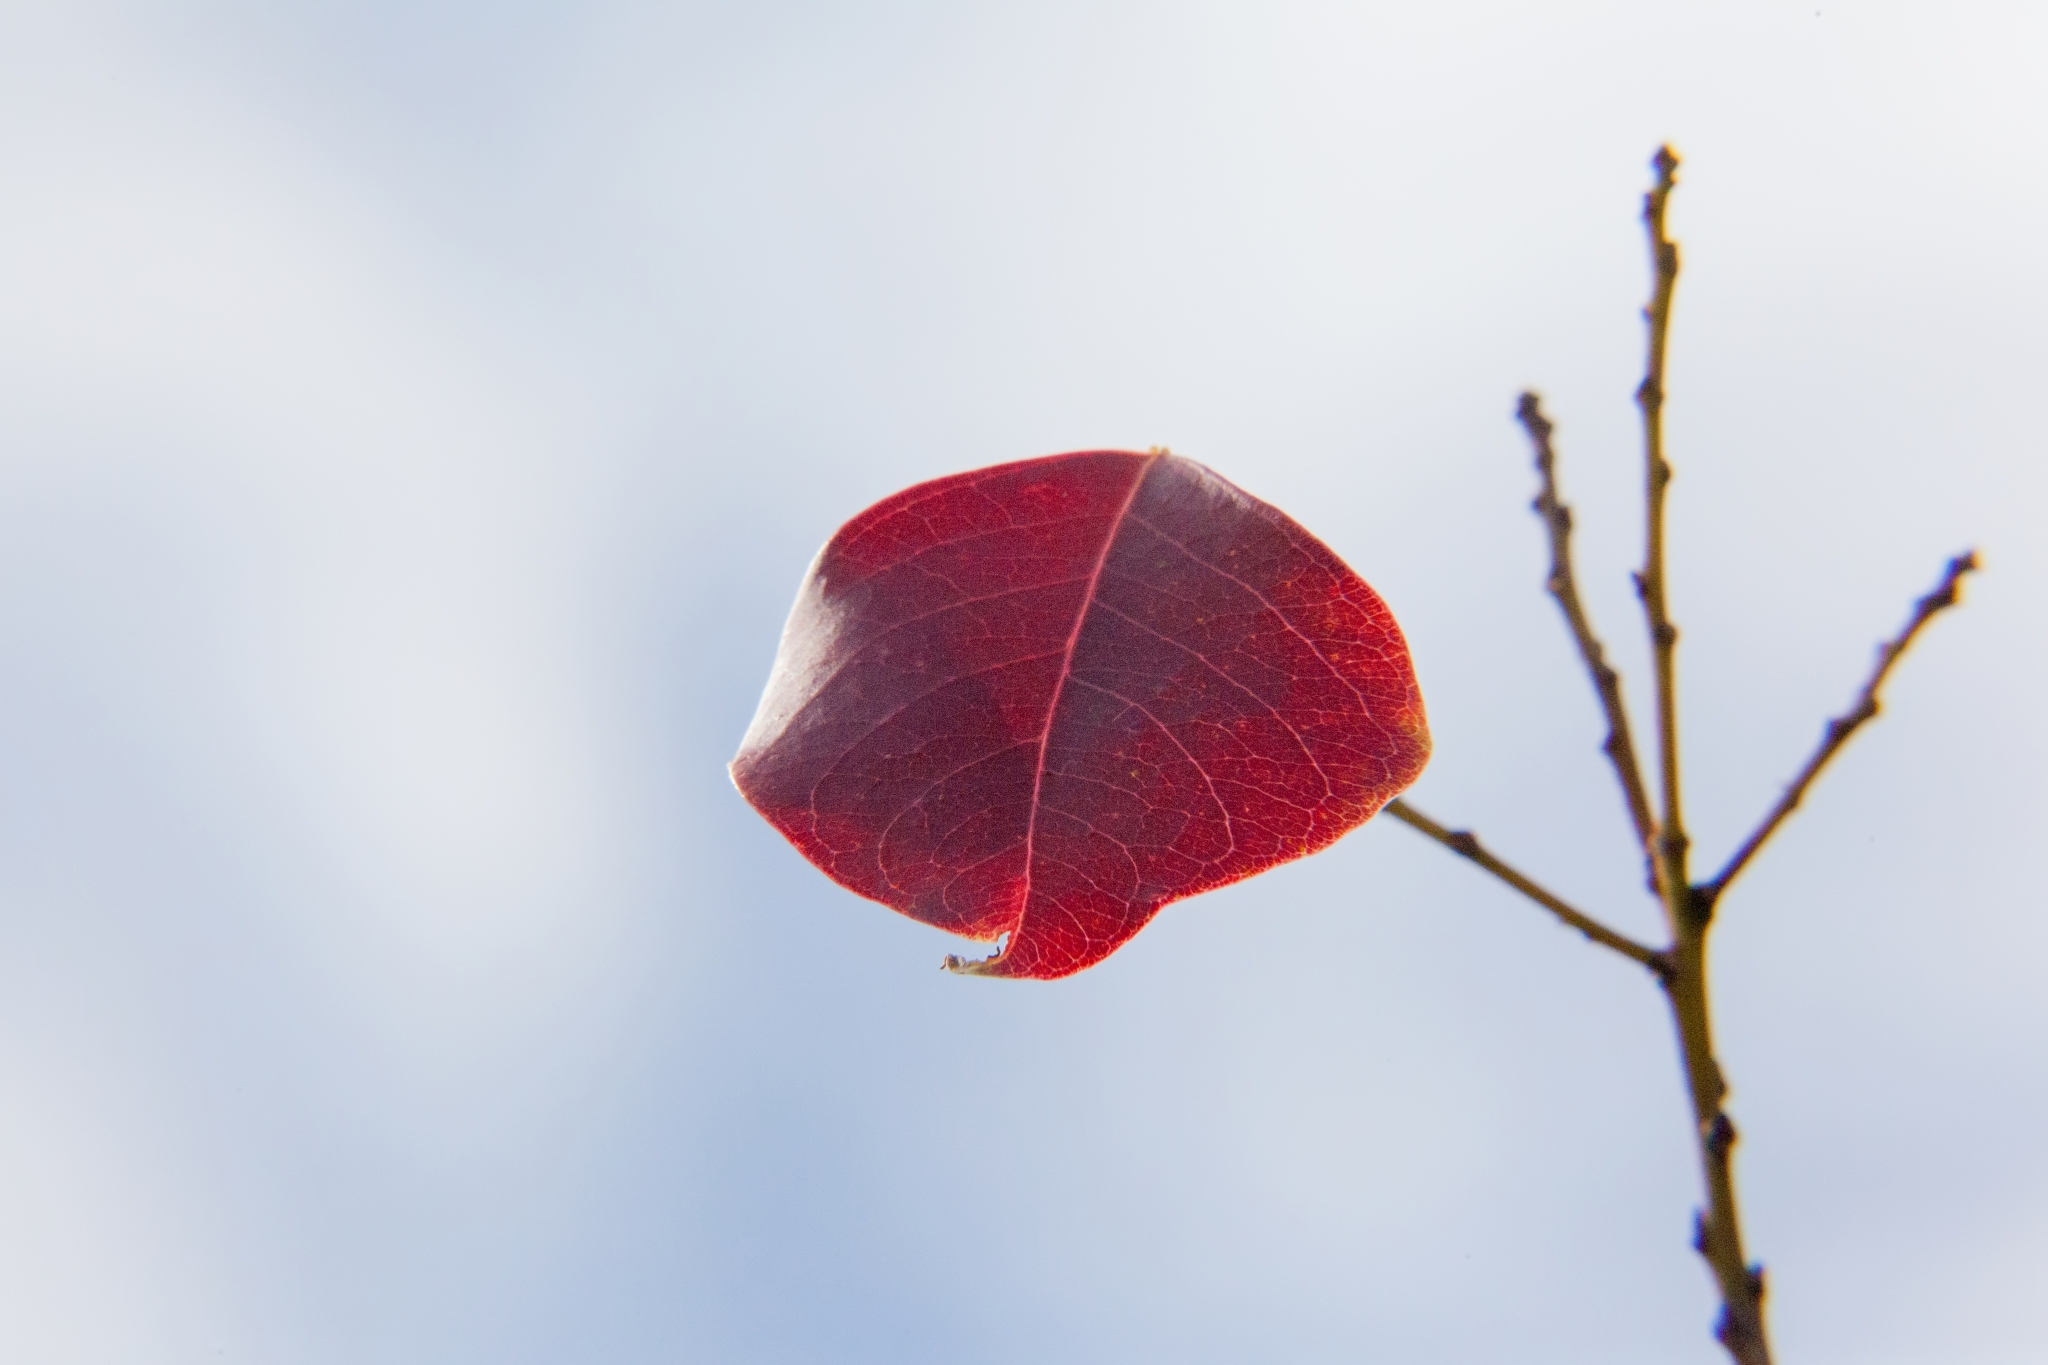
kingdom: Plantae
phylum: Tracheophyta
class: Magnoliopsida
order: Malpighiales
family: Euphorbiaceae
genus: Triadica
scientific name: Triadica sebifera
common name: Chinese tallow
